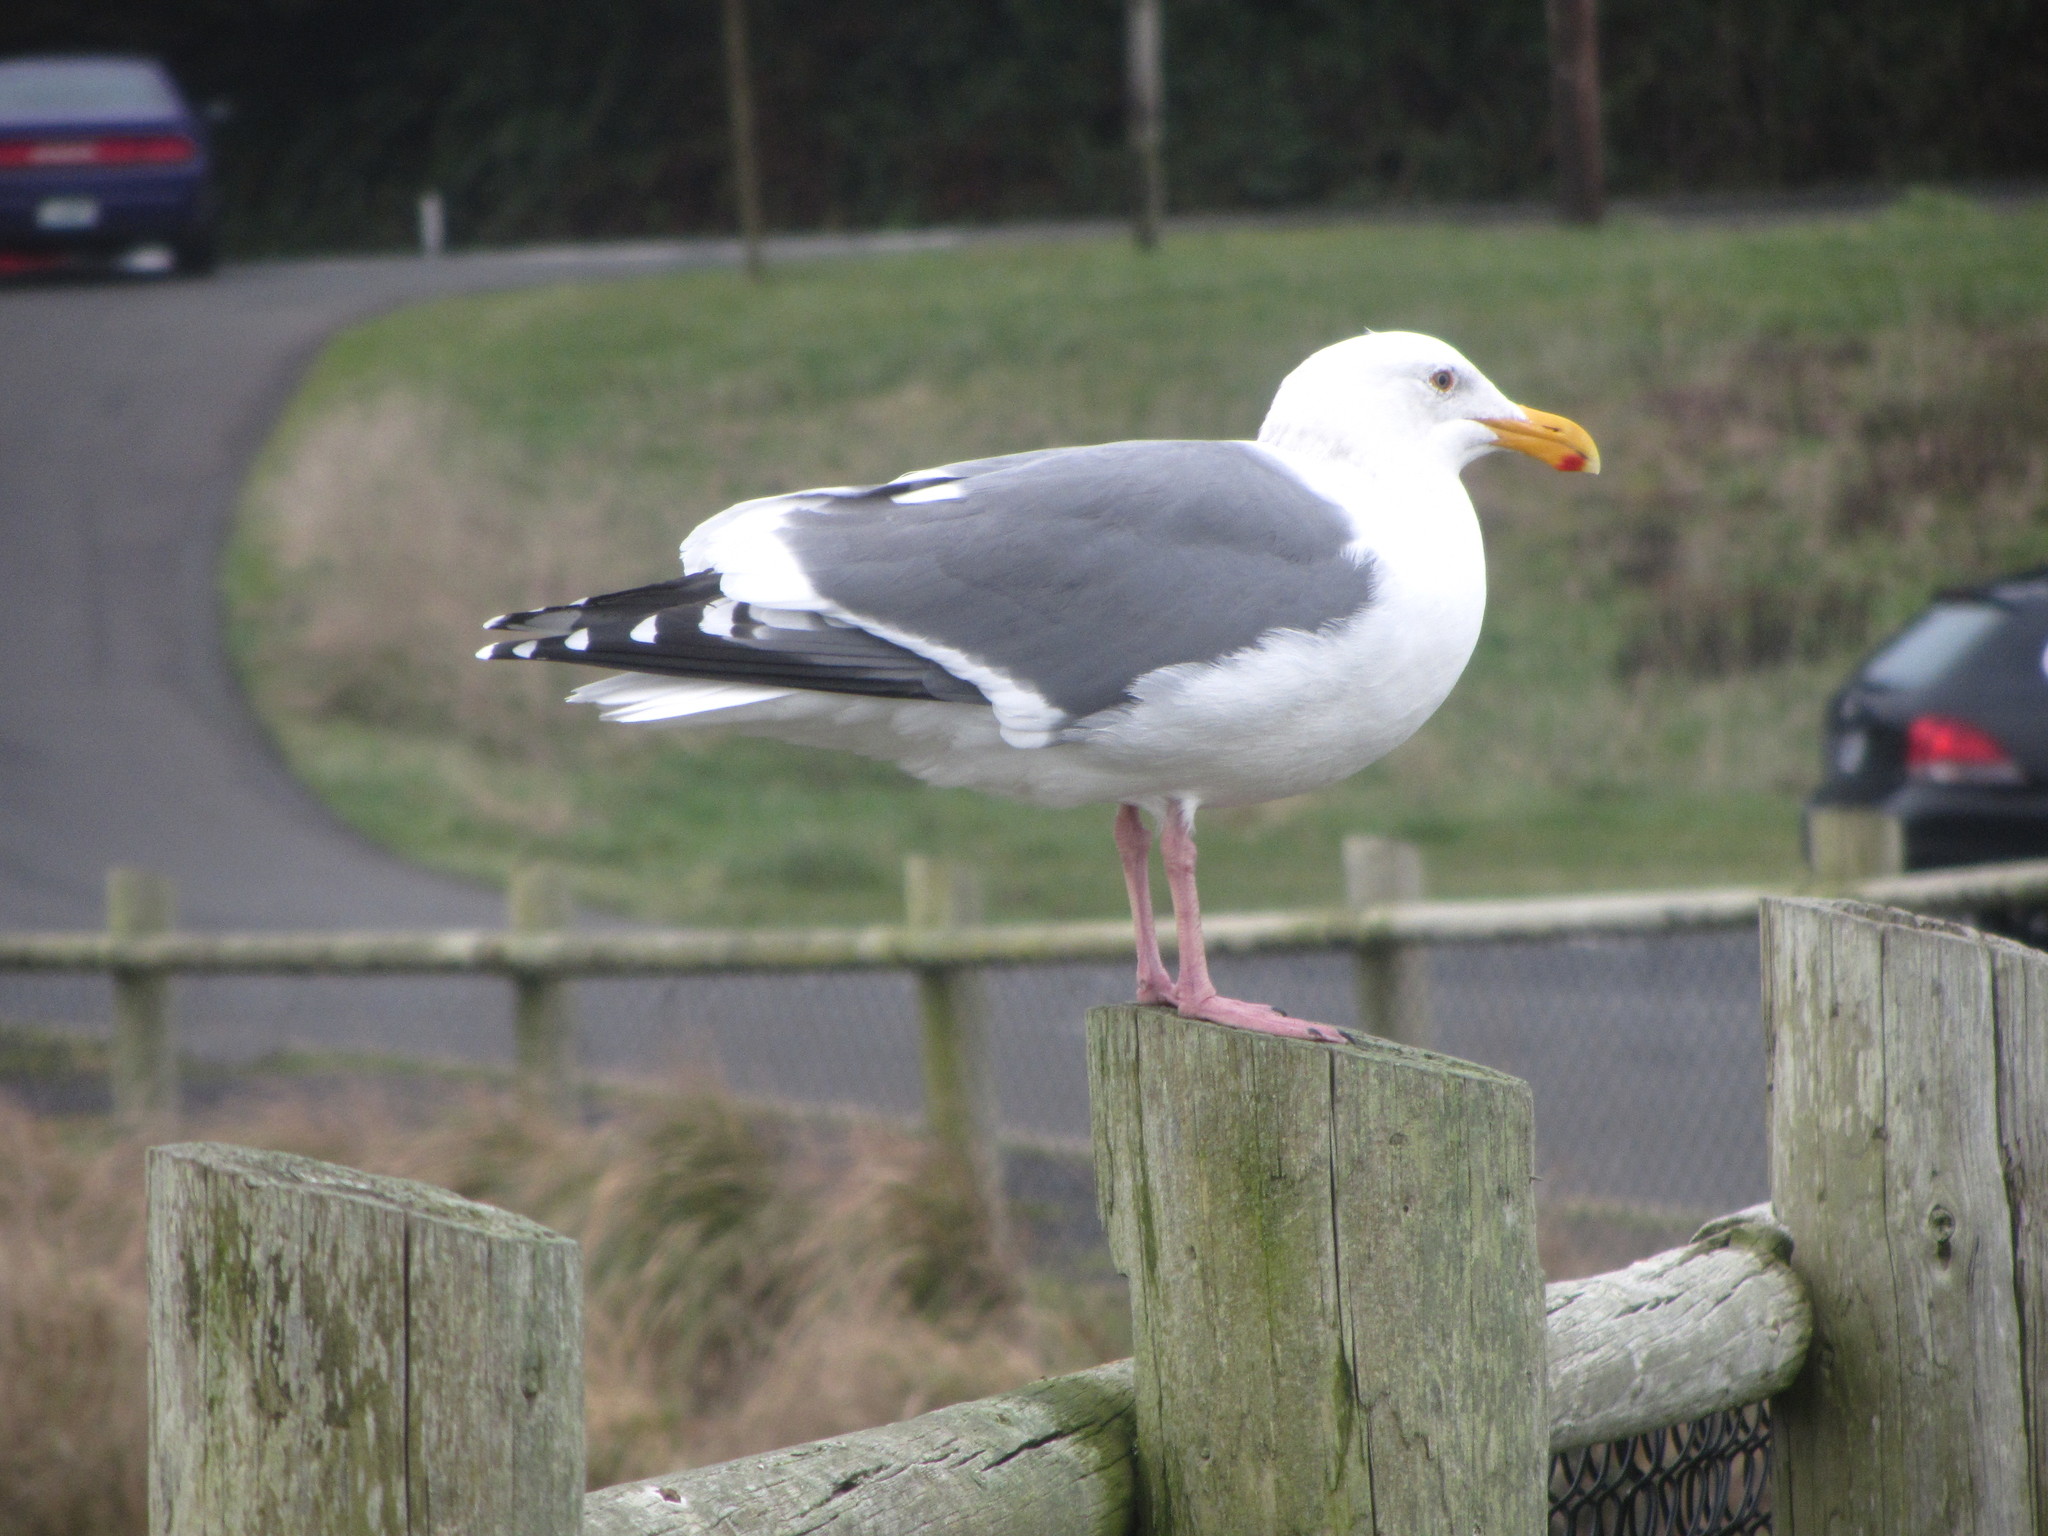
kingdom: Animalia
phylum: Chordata
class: Aves
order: Charadriiformes
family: Laridae
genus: Larus
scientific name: Larus occidentalis
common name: Western gull
